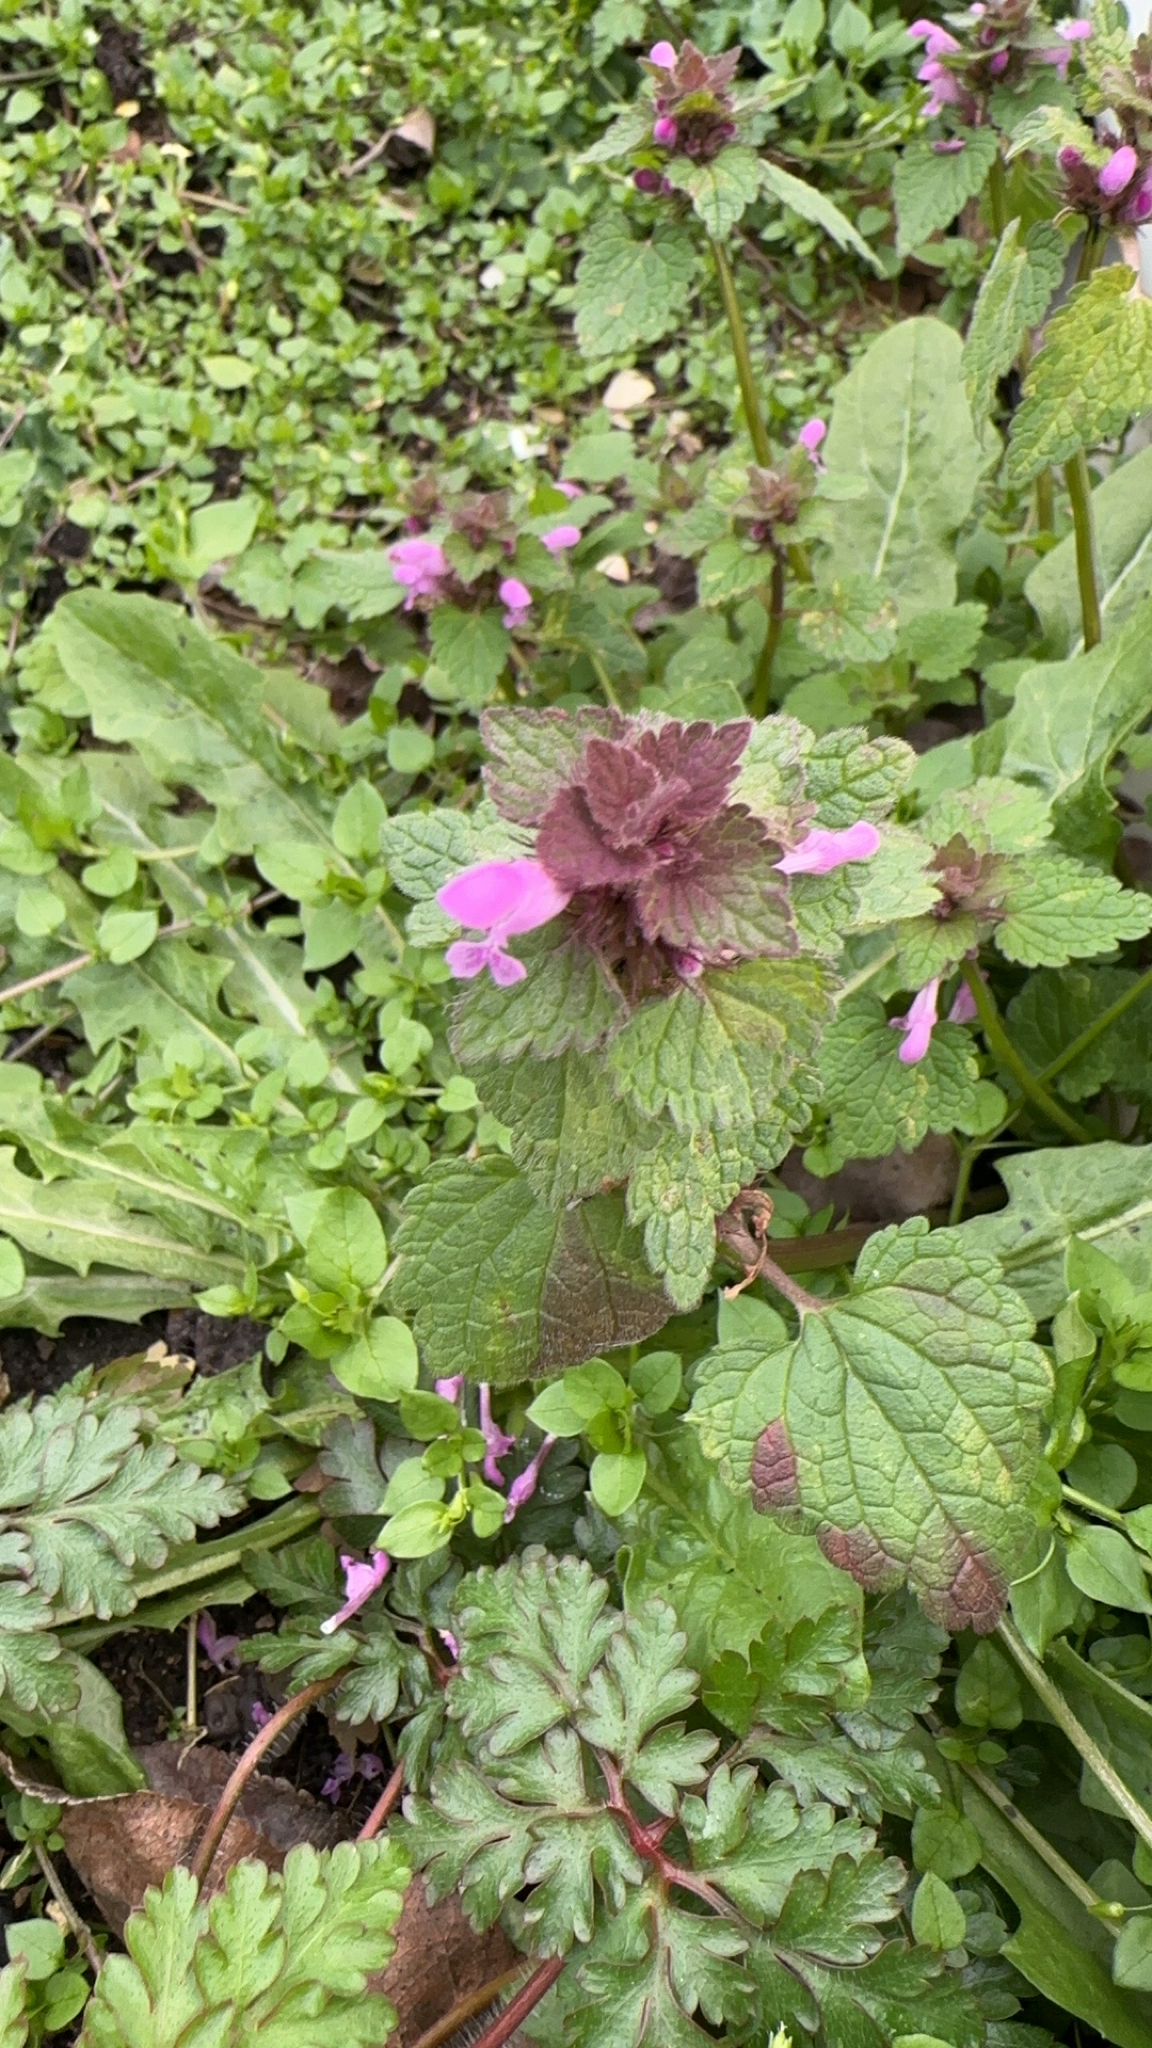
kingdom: Plantae
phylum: Tracheophyta
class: Magnoliopsida
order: Lamiales
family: Lamiaceae
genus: Lamium
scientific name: Lamium purpureum
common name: Red dead-nettle
